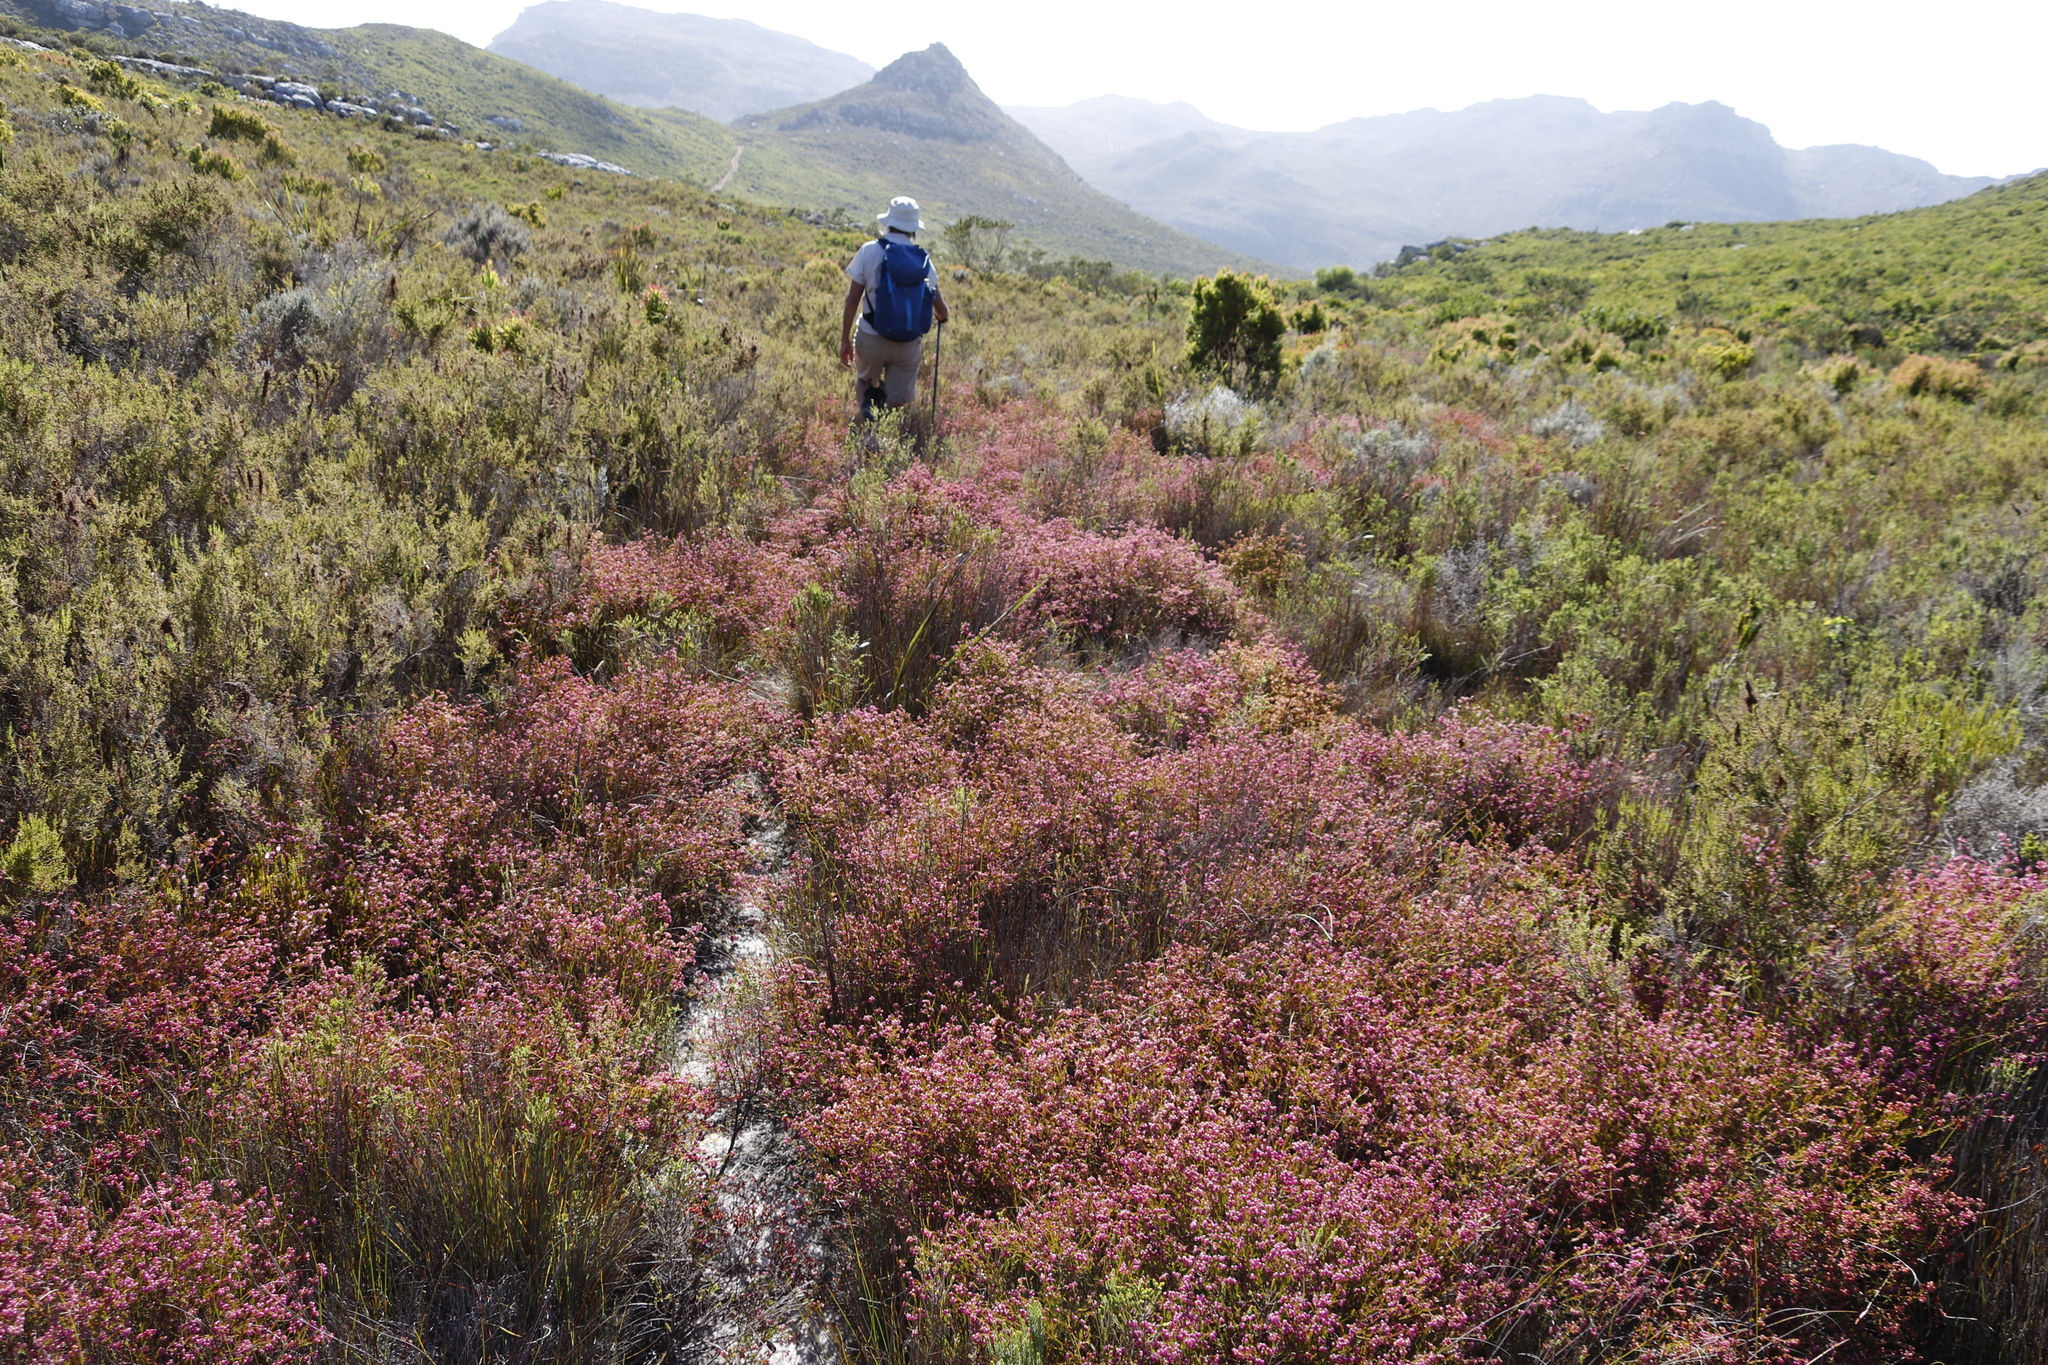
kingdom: Plantae
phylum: Tracheophyta
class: Magnoliopsida
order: Ericales
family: Ericaceae
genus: Erica
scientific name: Erica multumbellifera
